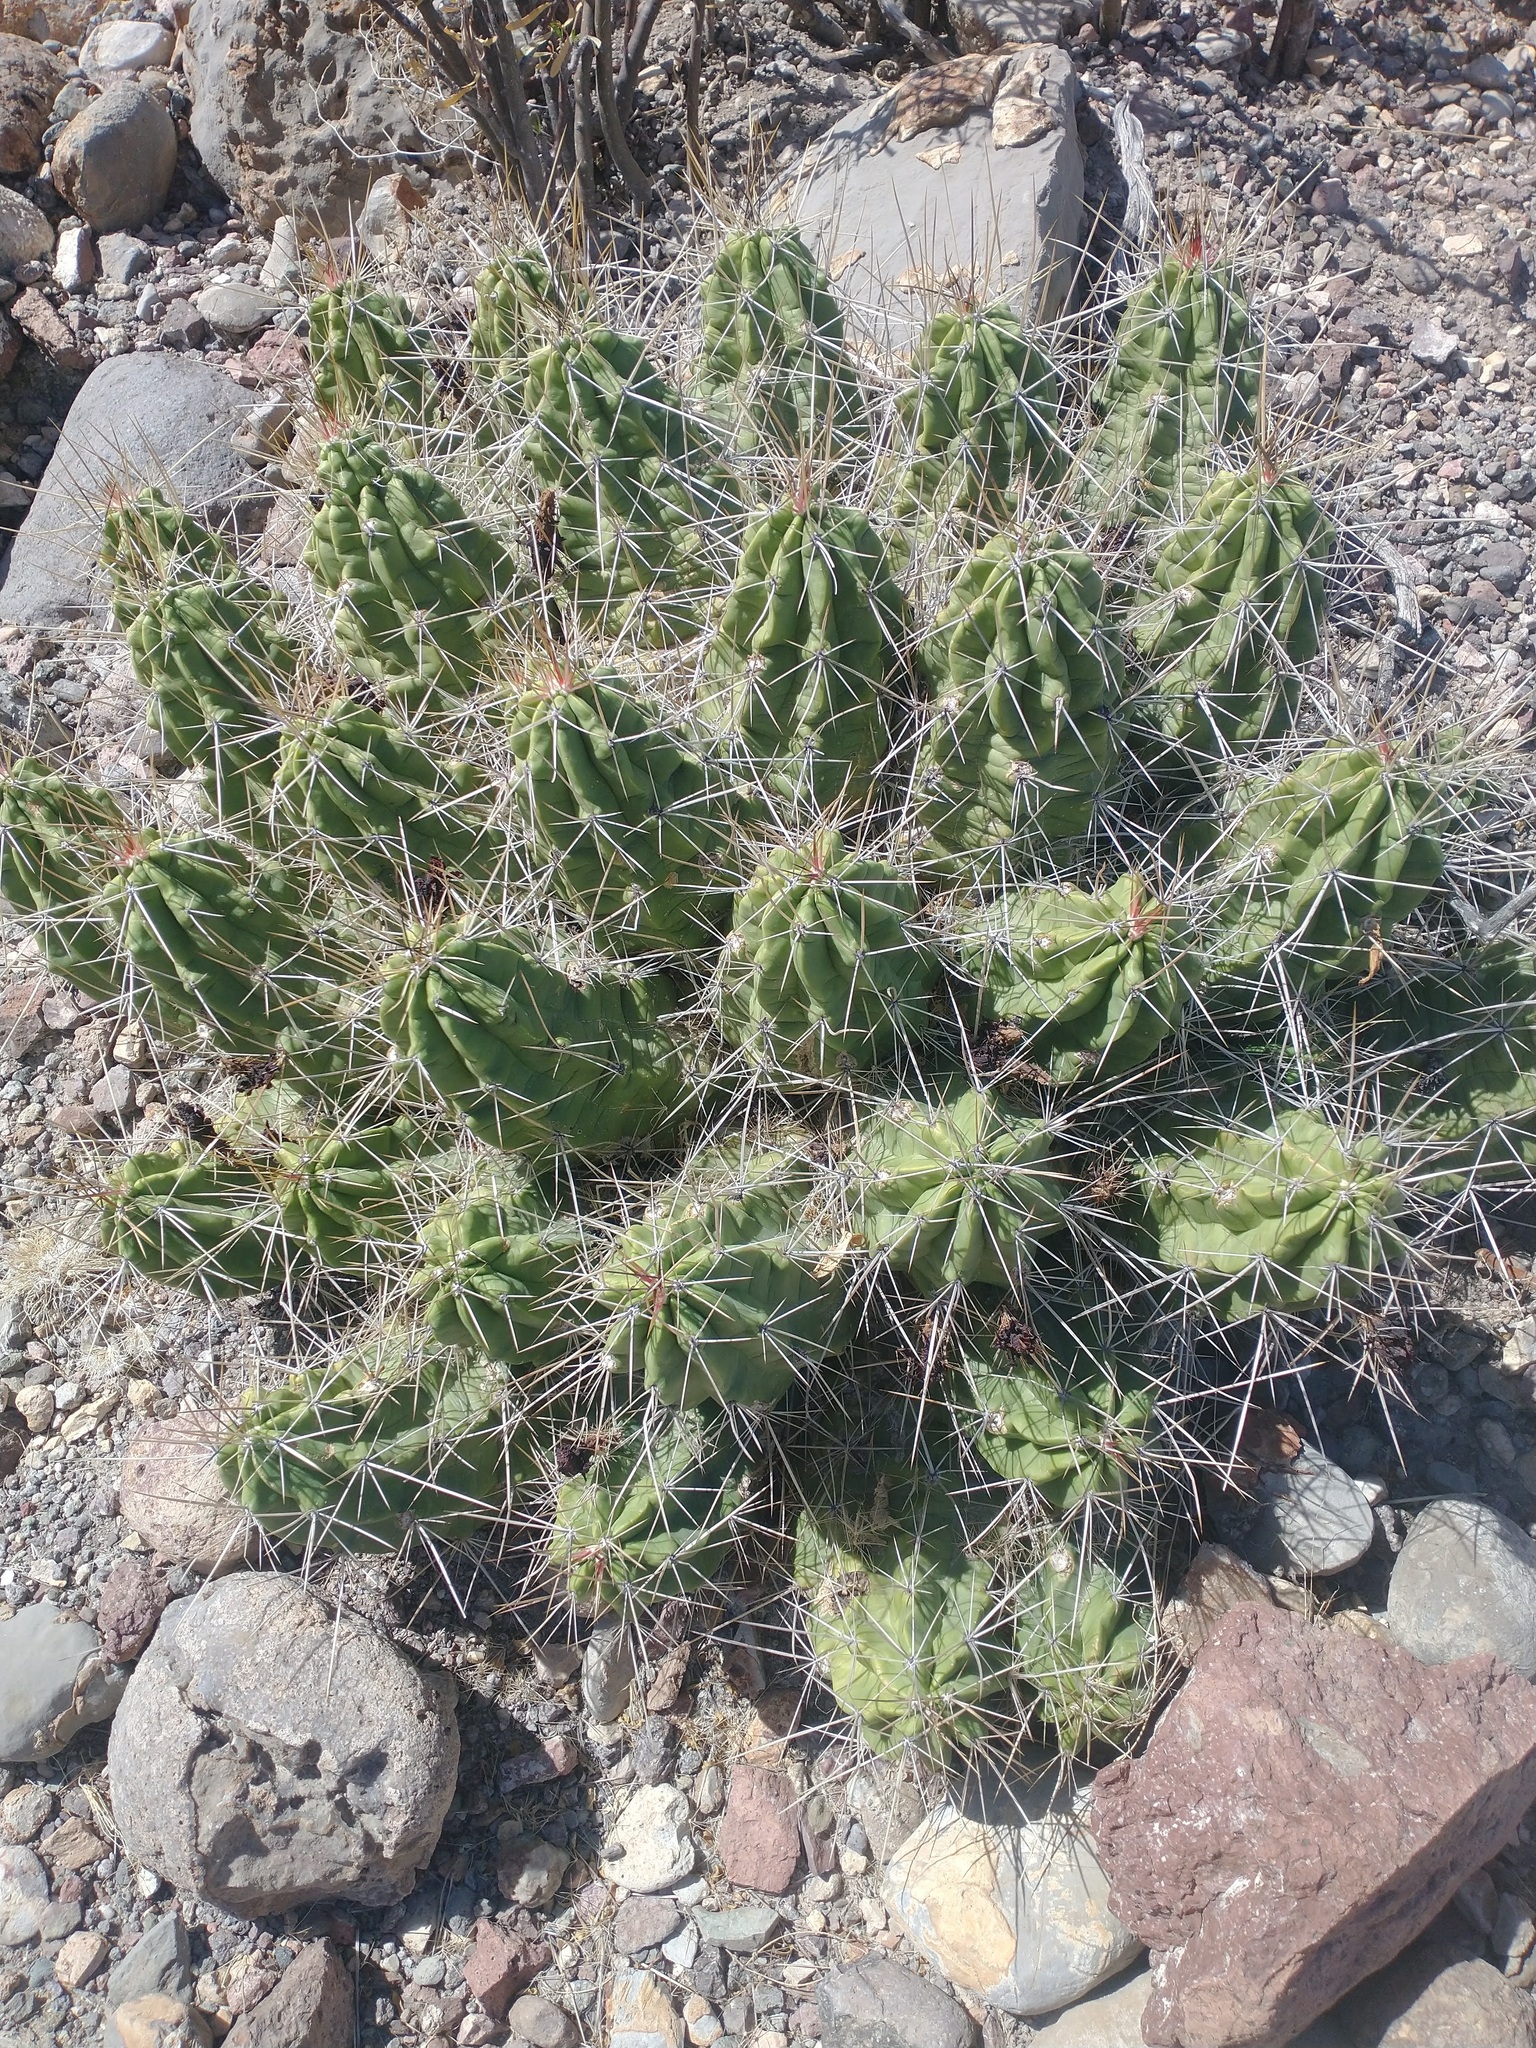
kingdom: Plantae
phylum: Tracheophyta
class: Magnoliopsida
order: Caryophyllales
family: Cactaceae
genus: Echinocereus
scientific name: Echinocereus enneacanthus
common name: Pitaya
